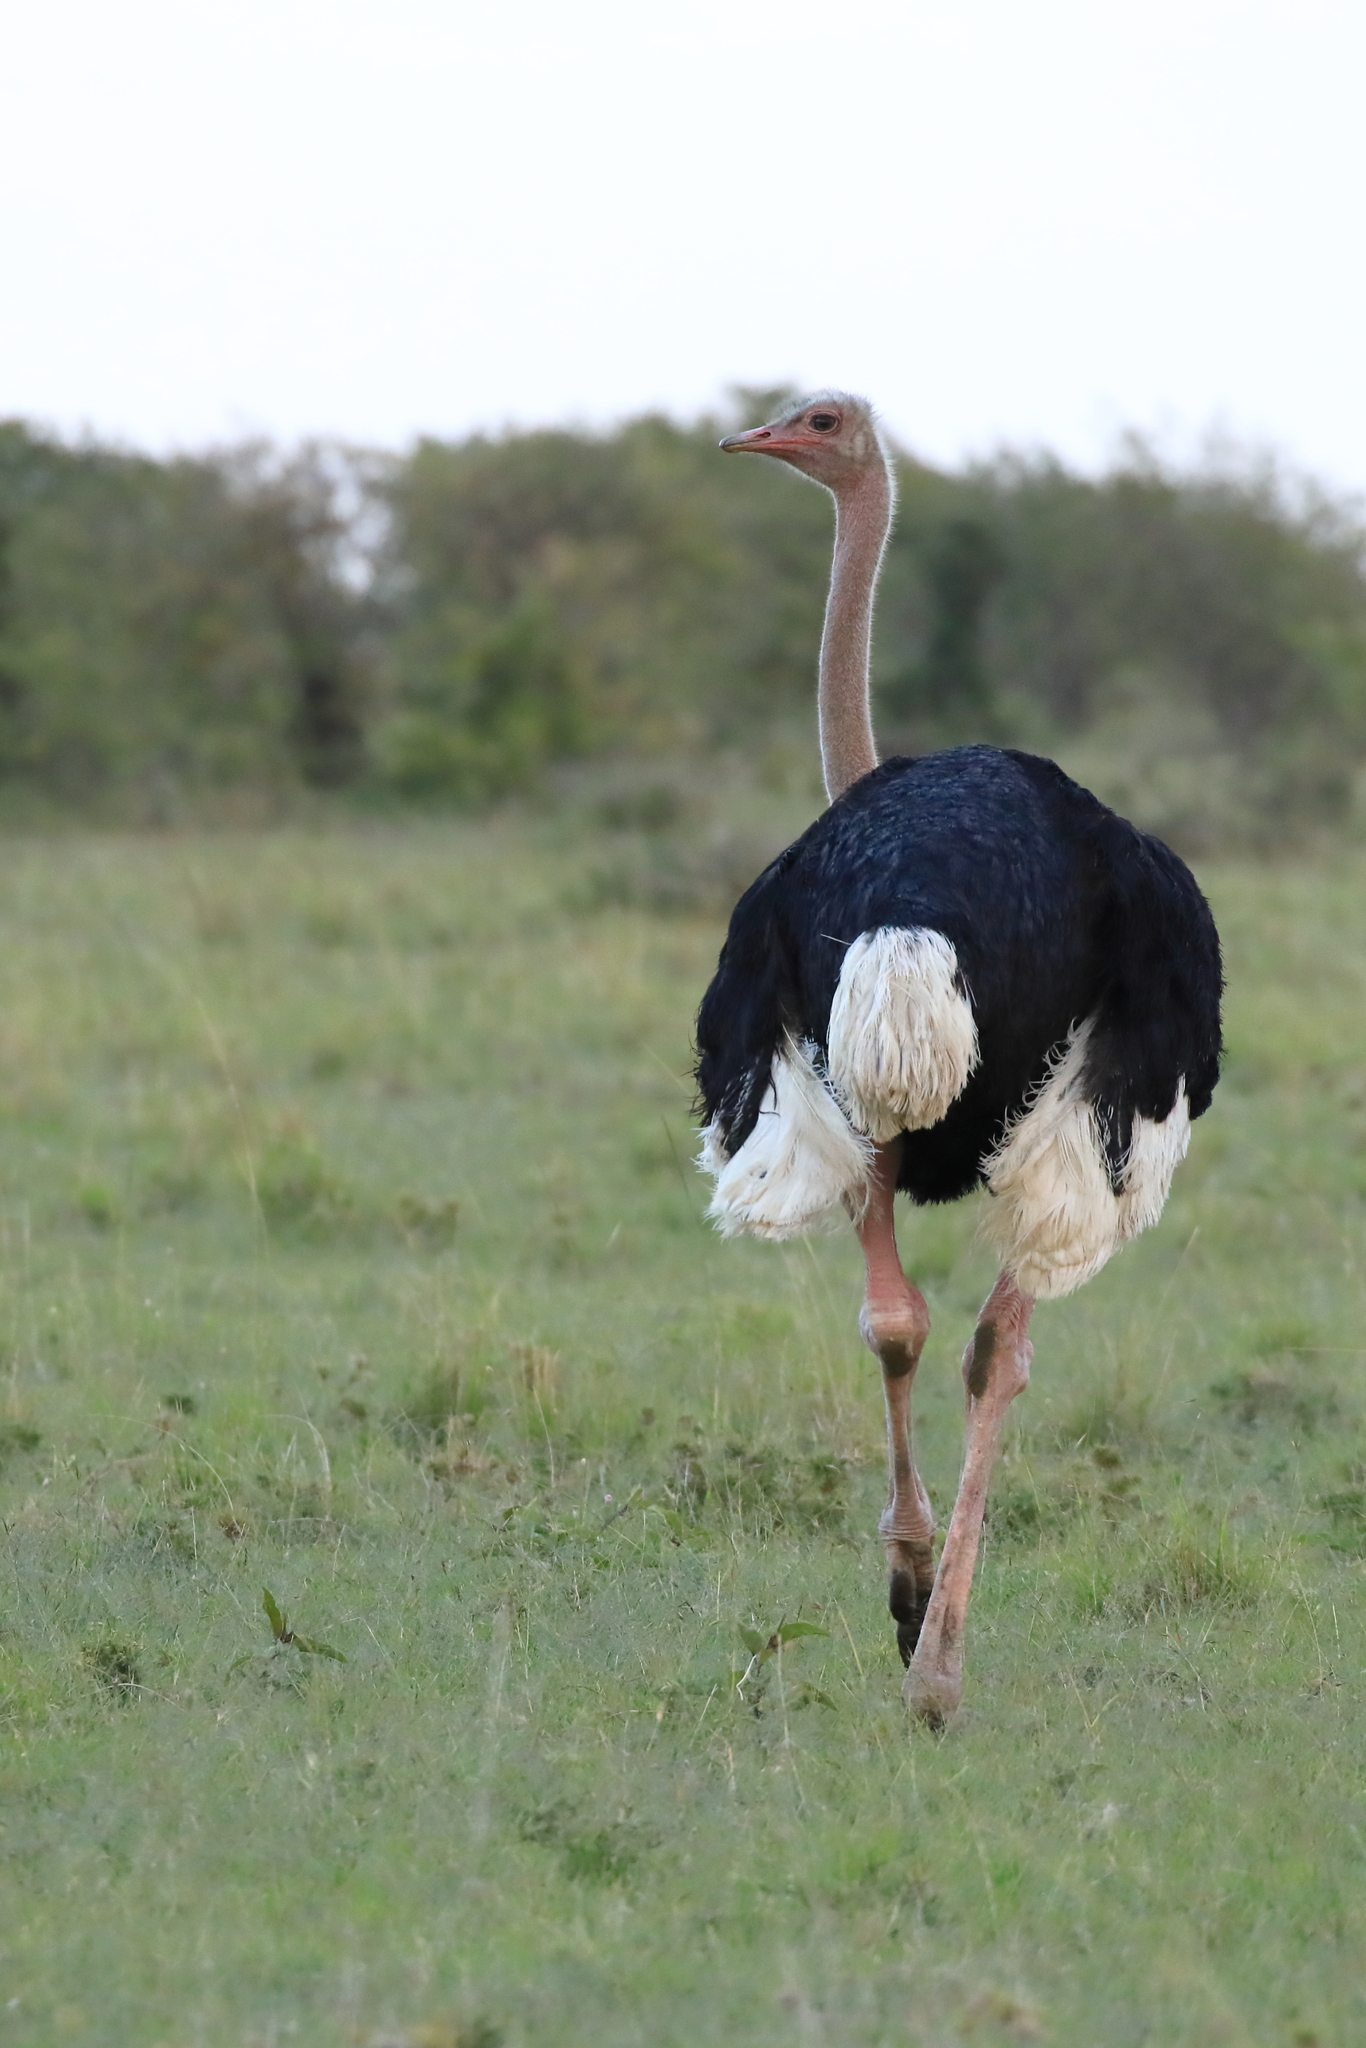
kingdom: Animalia
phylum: Chordata
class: Aves
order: Struthioniformes
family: Struthionidae
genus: Struthio
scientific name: Struthio camelus
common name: Common ostrich
